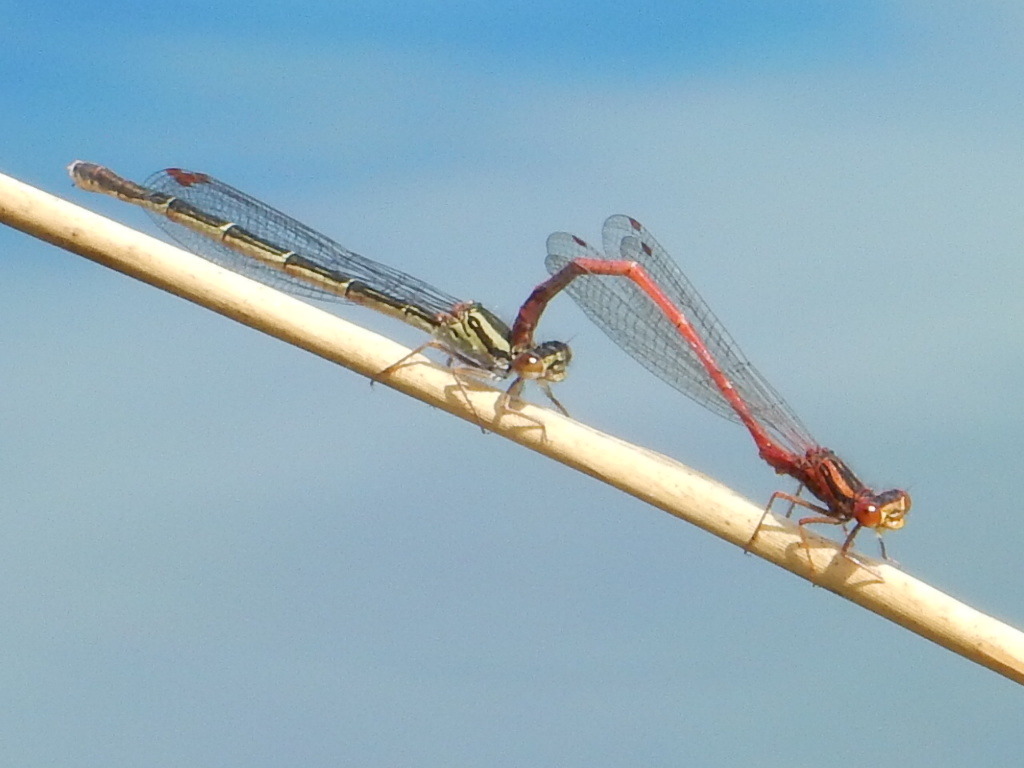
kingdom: Animalia
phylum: Arthropoda
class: Insecta
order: Odonata
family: Coenagrionidae
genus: Xanthocnemis
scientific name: Xanthocnemis zealandica
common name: Common redcoat damselfly
